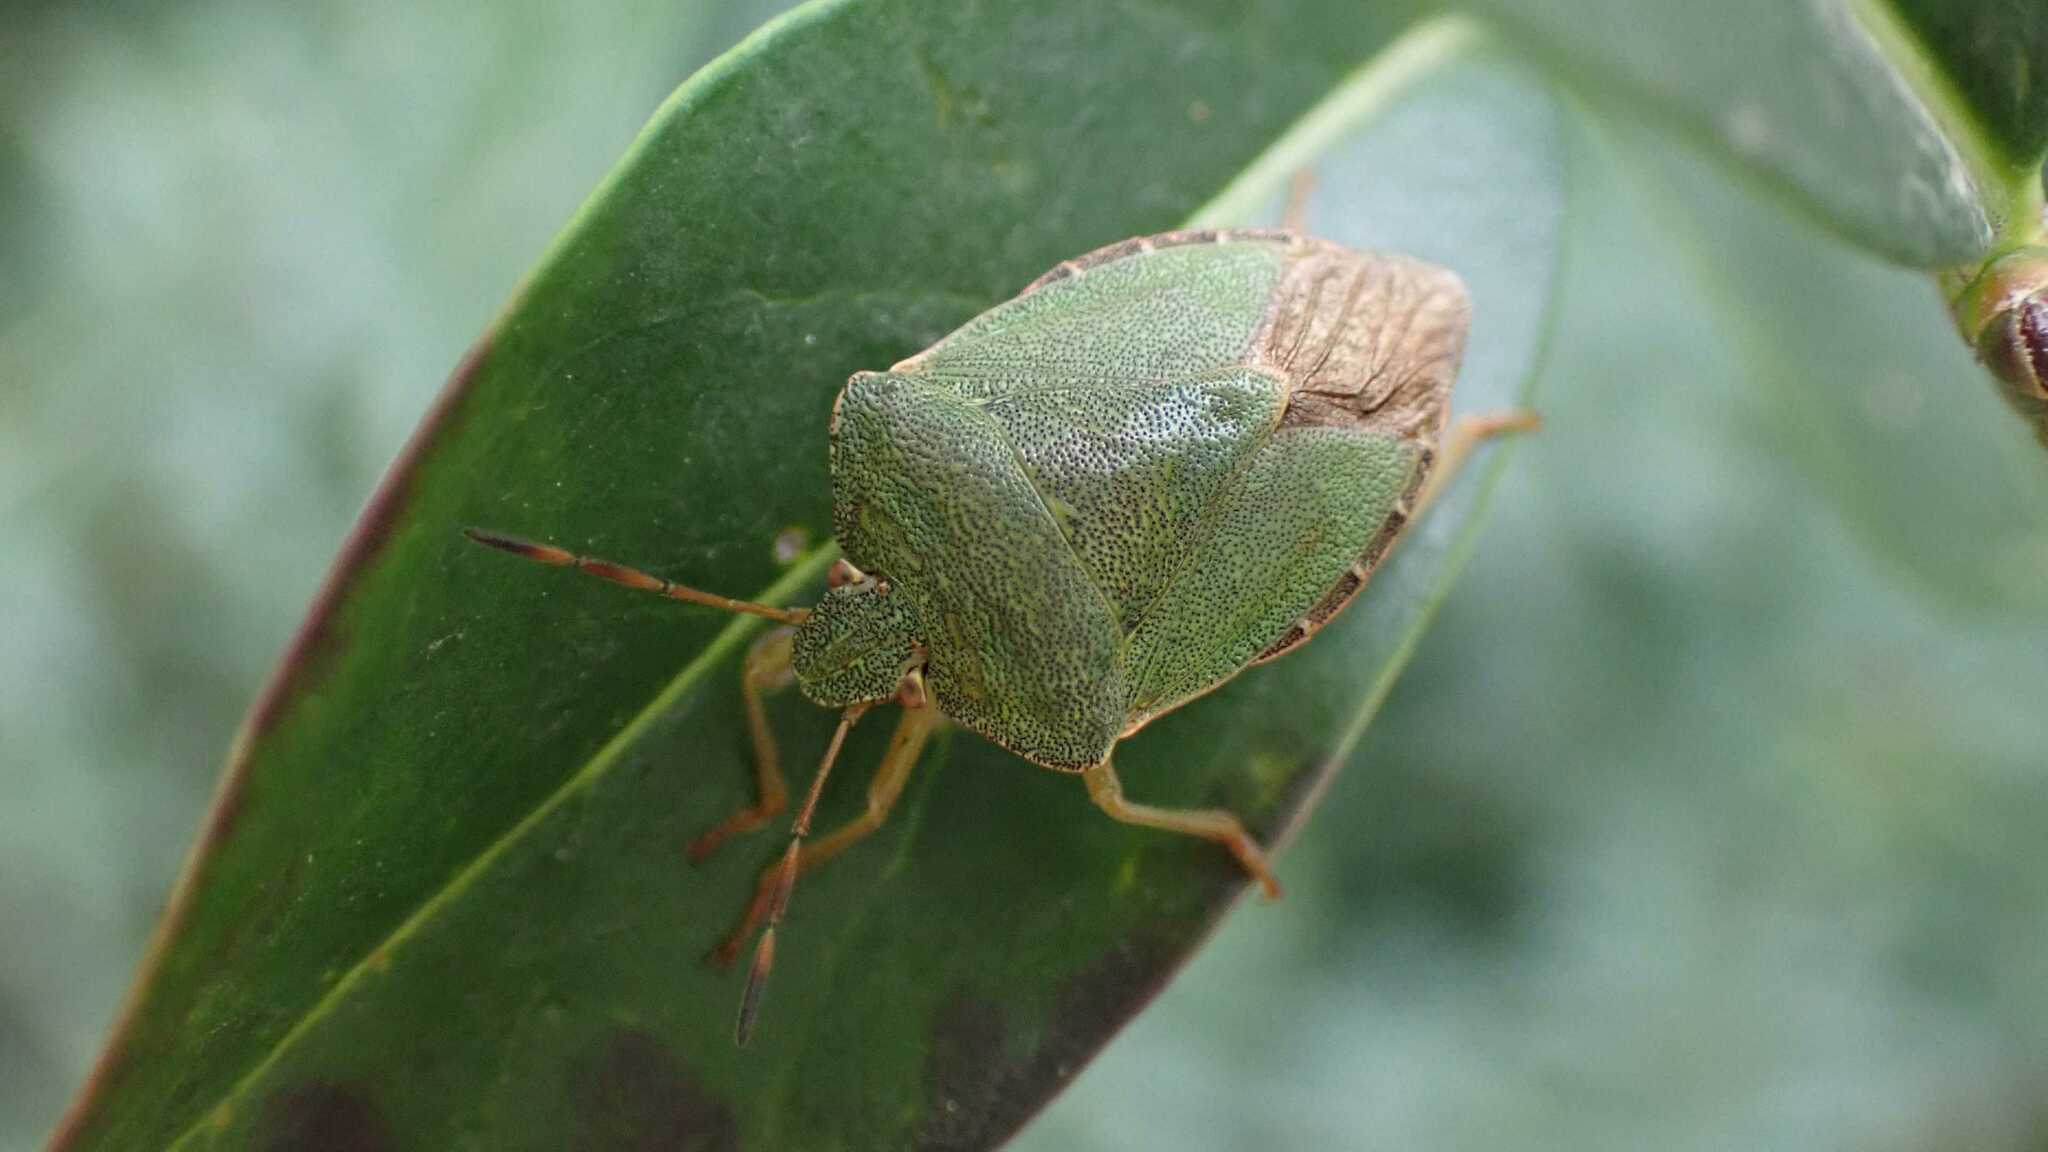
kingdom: Animalia
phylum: Arthropoda
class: Insecta
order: Hemiptera
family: Pentatomidae
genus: Palomena
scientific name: Palomena prasina
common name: Green shieldbug
